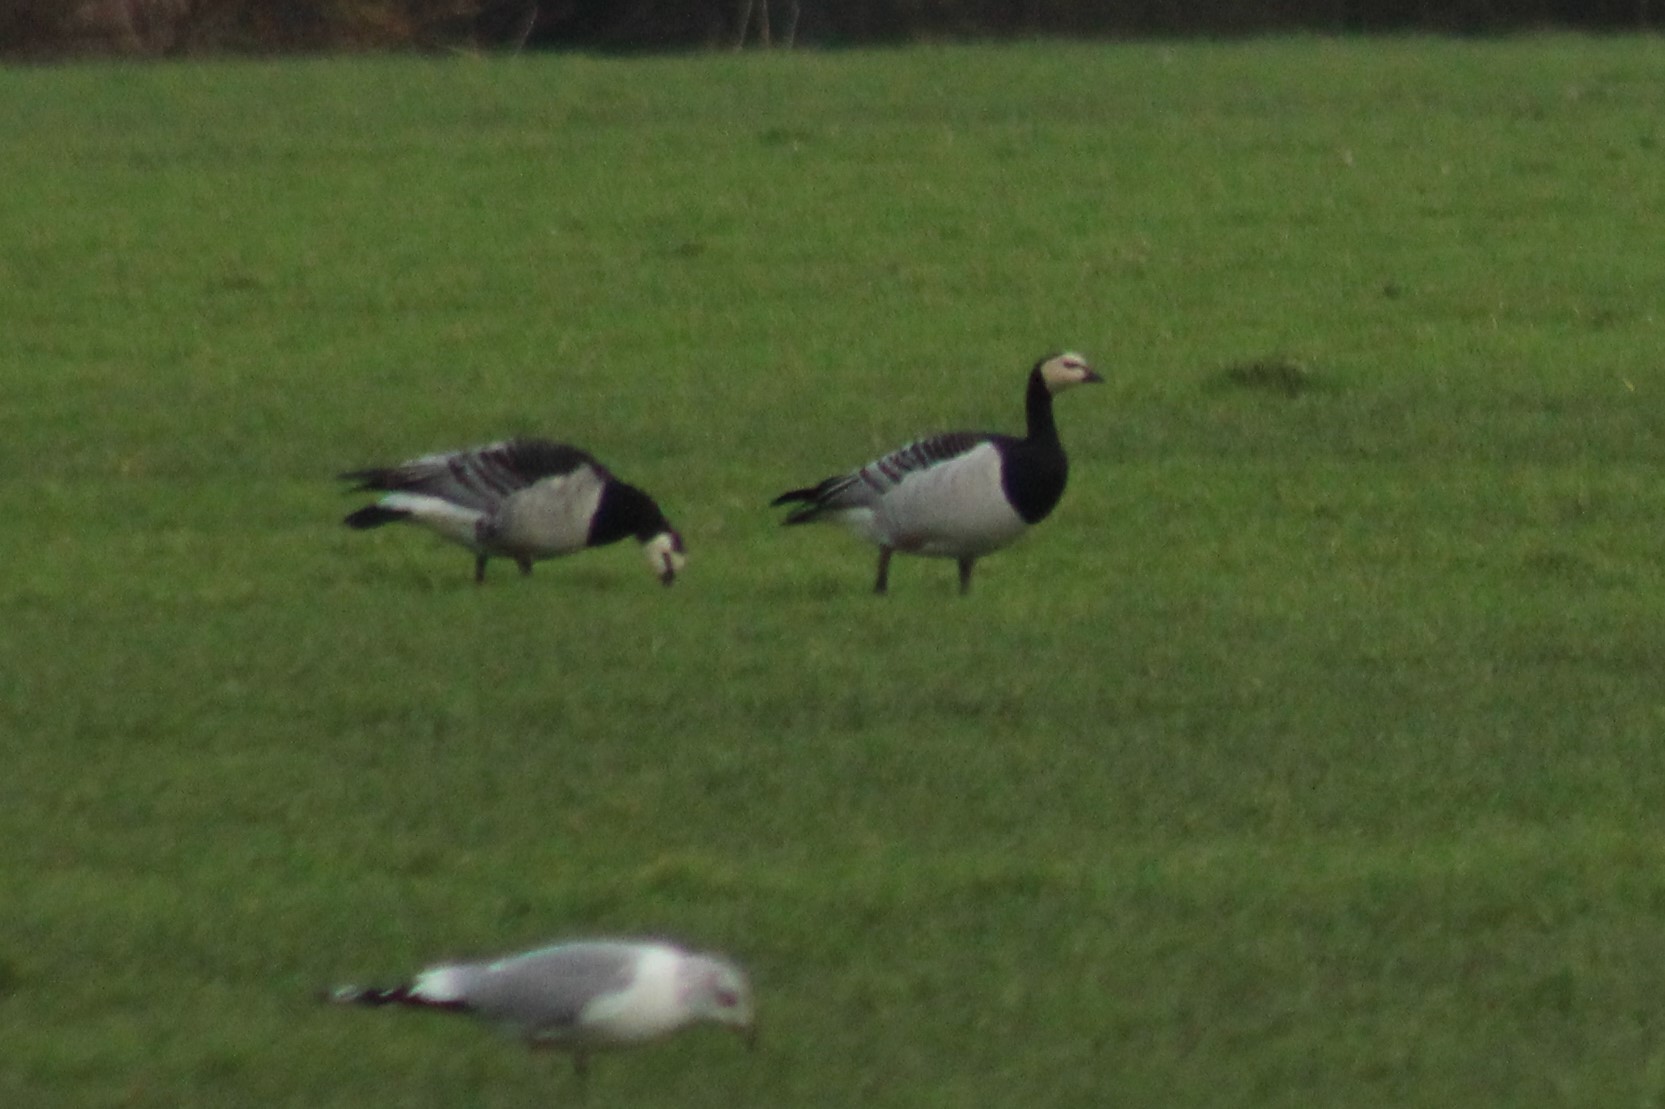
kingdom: Animalia
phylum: Chordata
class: Aves
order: Anseriformes
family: Anatidae
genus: Branta
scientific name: Branta leucopsis
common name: Barnacle goose
